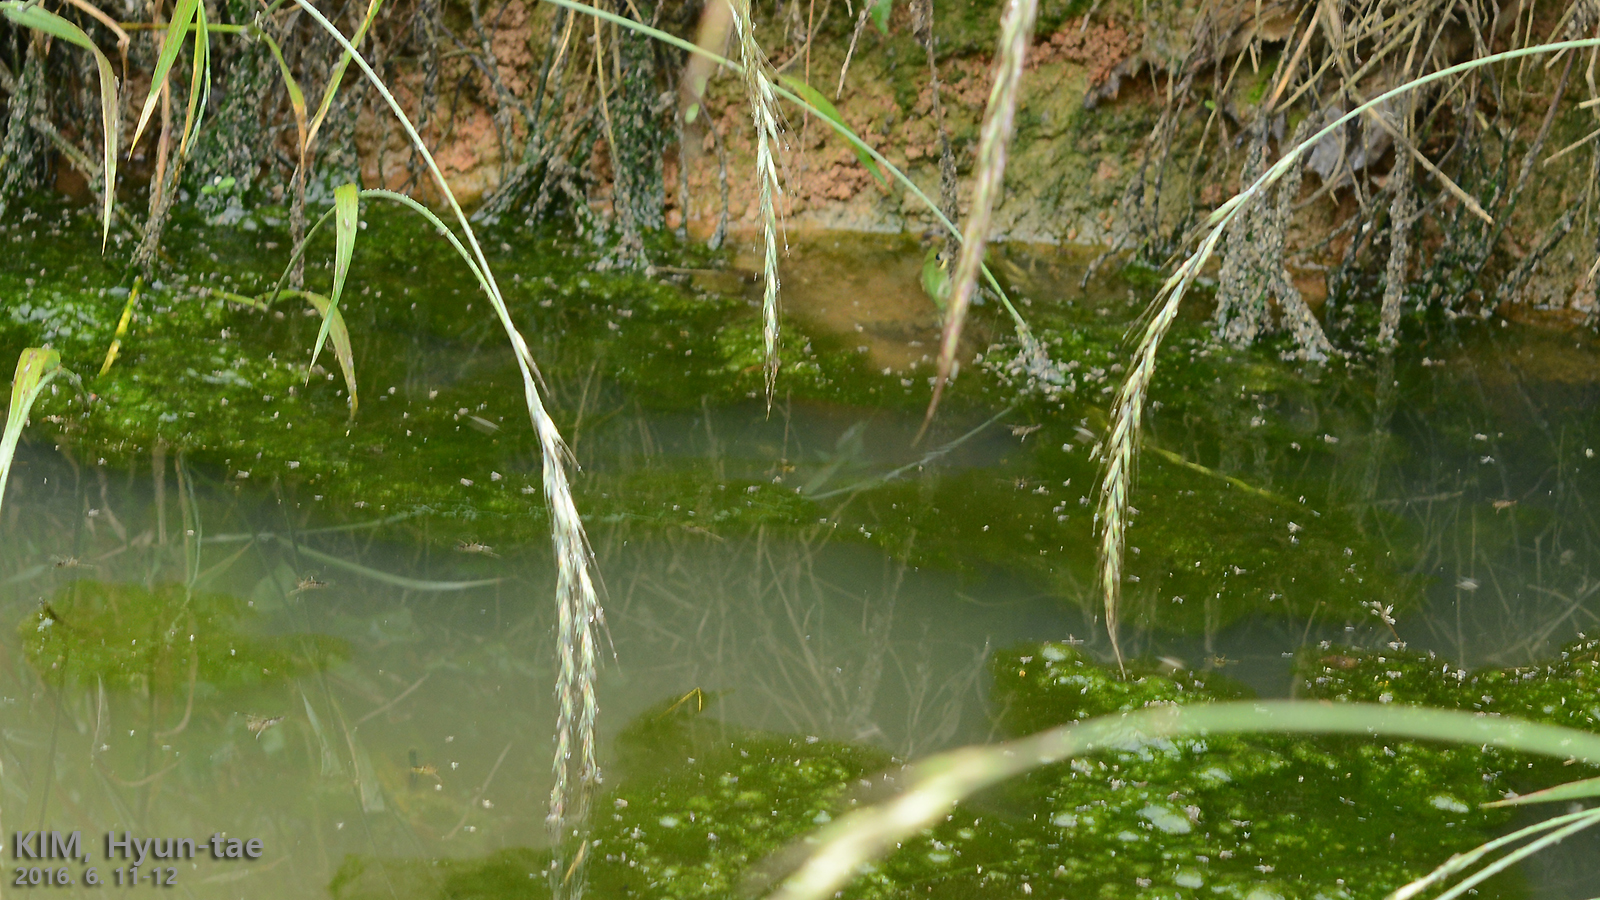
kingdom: Animalia
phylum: Chordata
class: Amphibia
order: Anura
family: Ranidae
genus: Lithobates
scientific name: Lithobates catesbeianus
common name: American bullfrog
